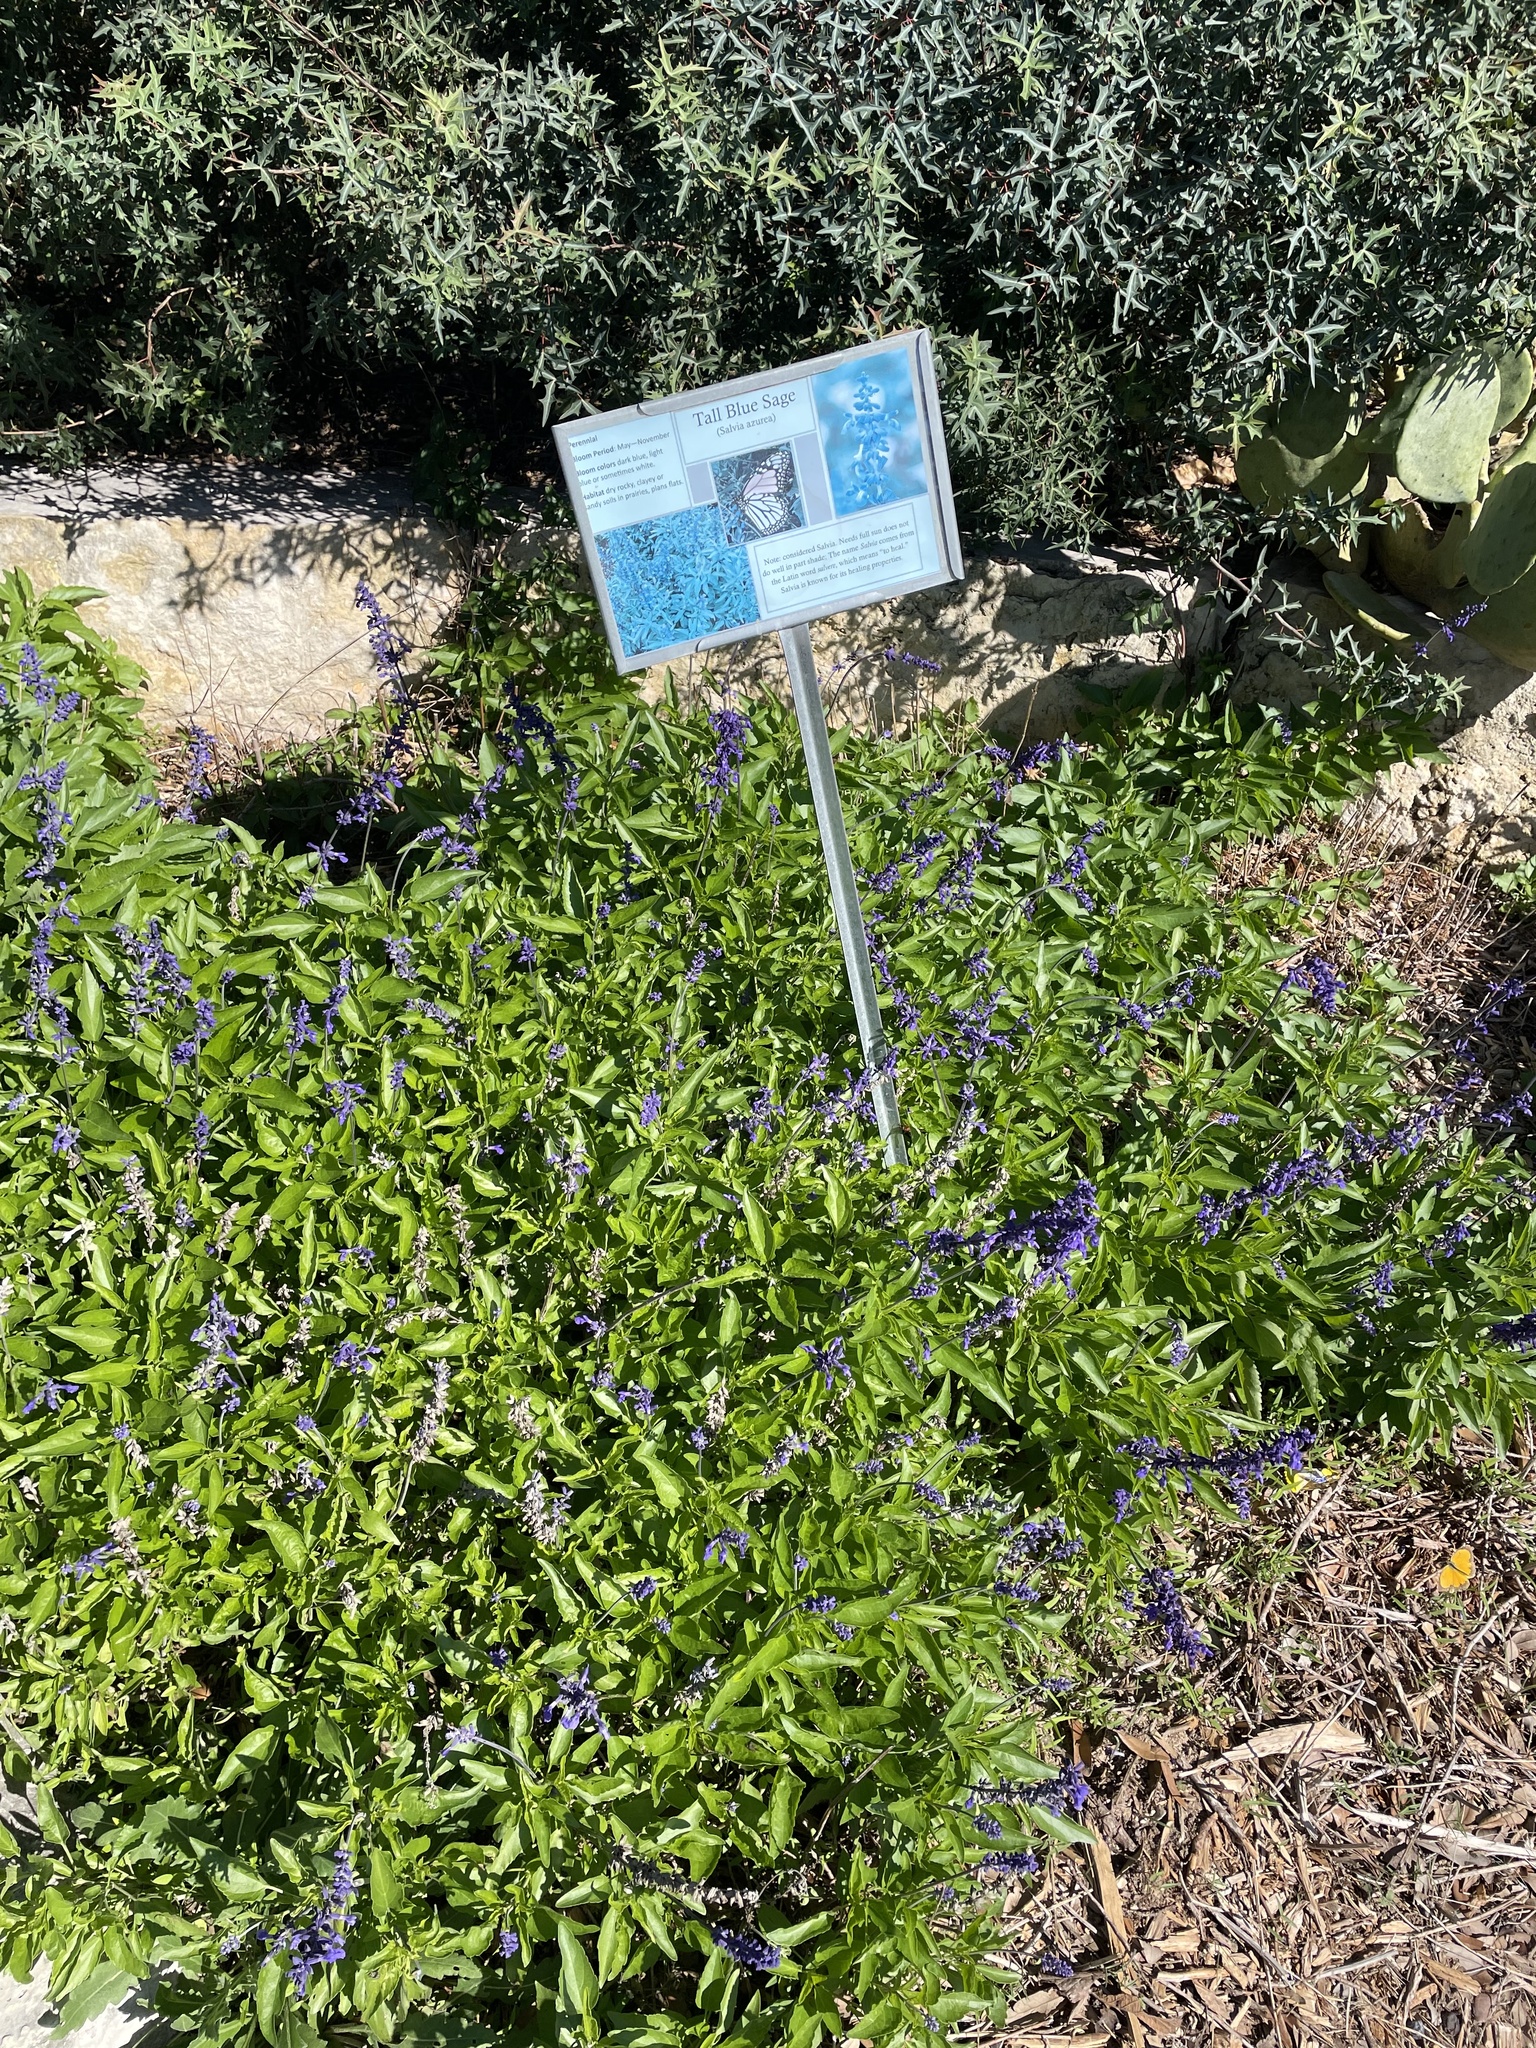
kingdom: Plantae
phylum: Tracheophyta
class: Magnoliopsida
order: Lamiales
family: Lamiaceae
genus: Salvia
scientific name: Salvia farinacea
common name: Mealy sage
